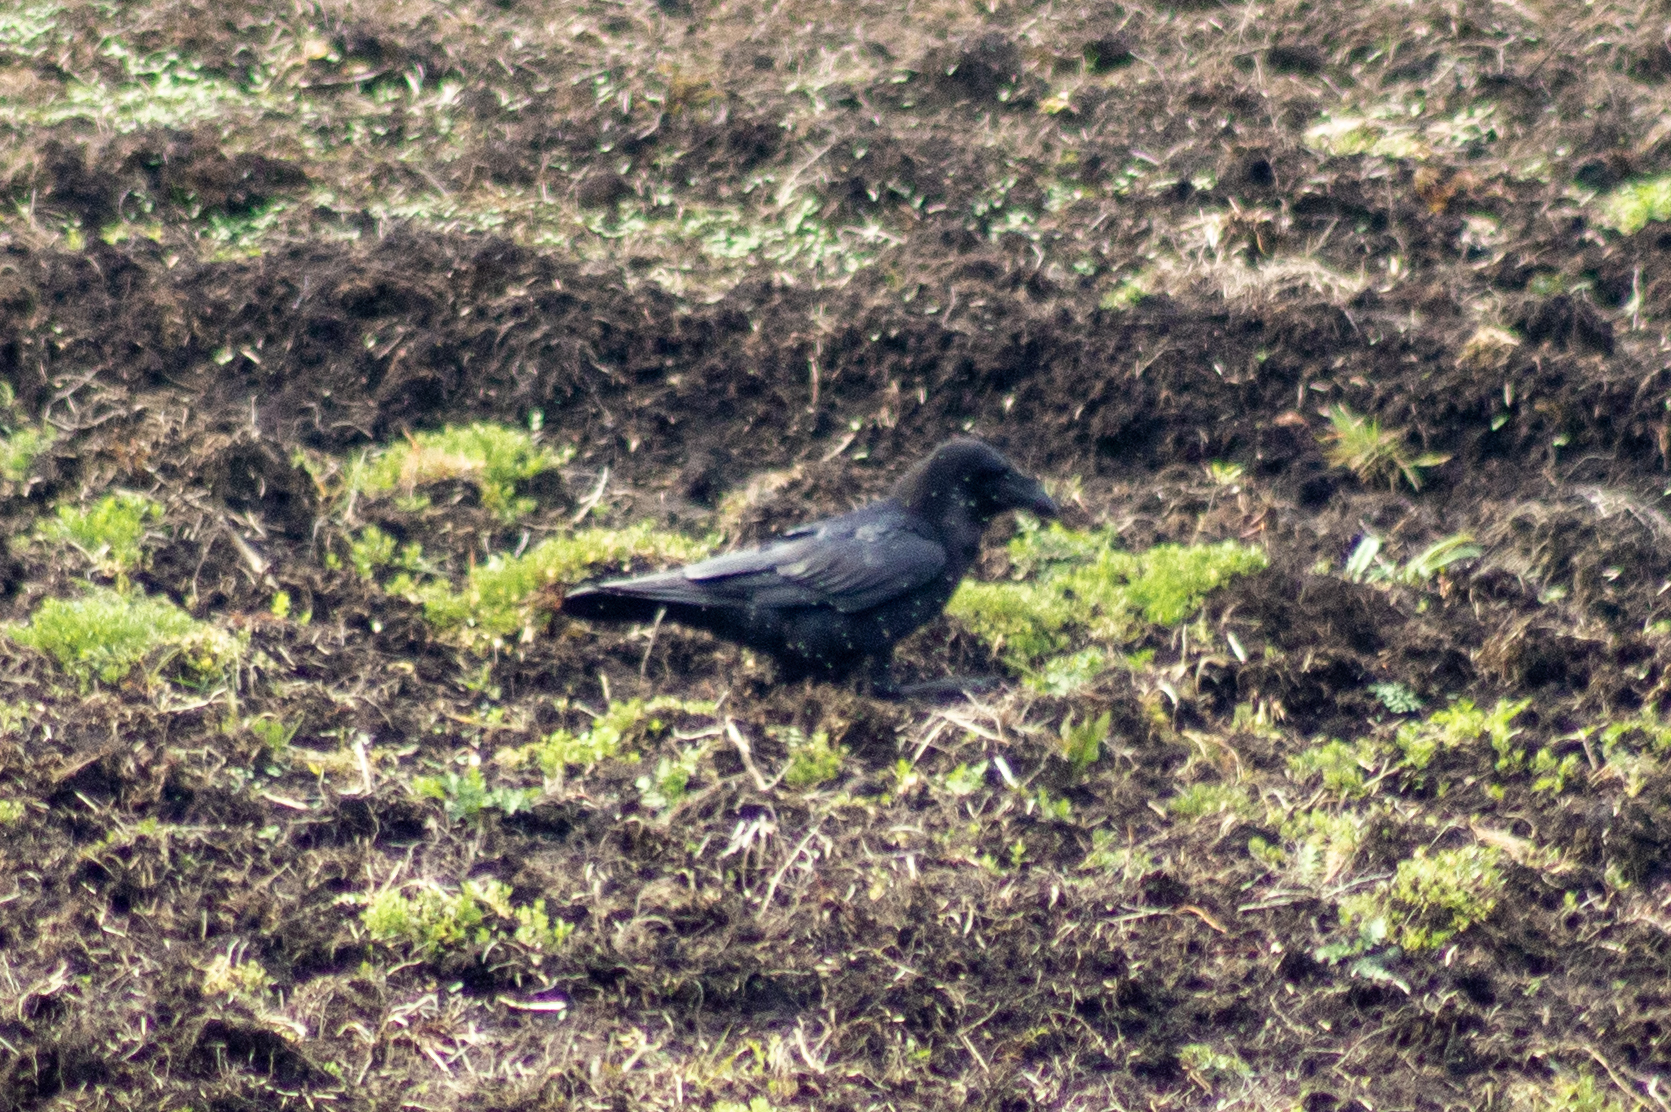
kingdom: Animalia
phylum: Chordata
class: Aves
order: Passeriformes
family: Corvidae
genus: Corvus
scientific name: Corvus corax
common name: Common raven
